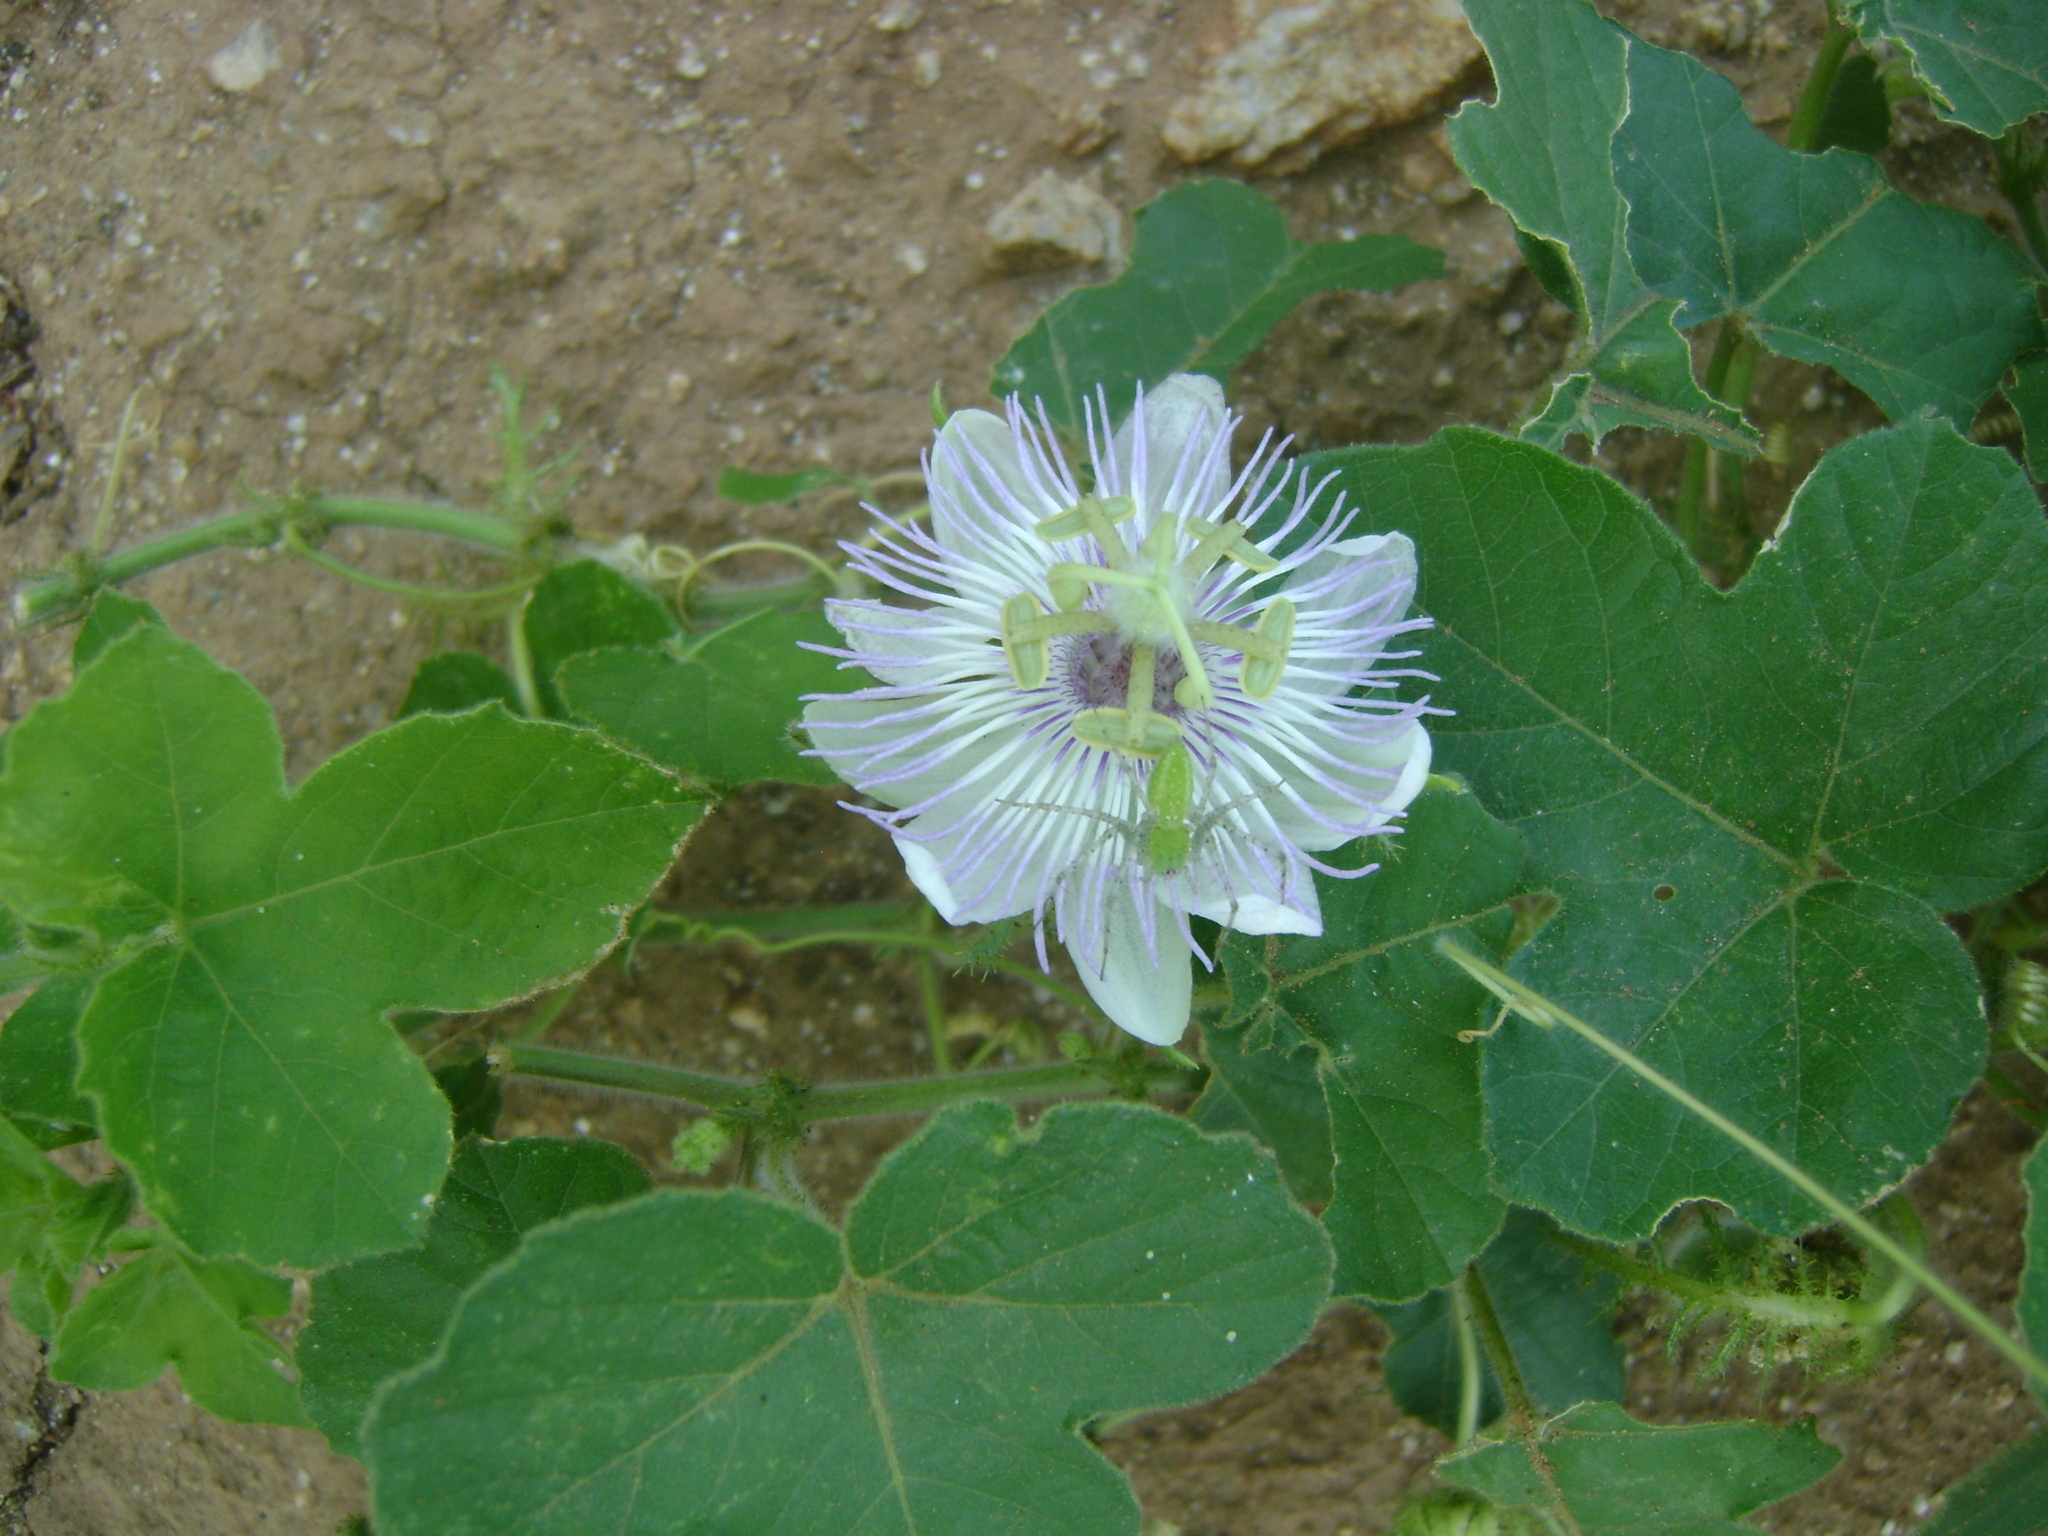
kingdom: Plantae
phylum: Tracheophyta
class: Magnoliopsida
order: Malpighiales
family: Passifloraceae
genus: Passiflora
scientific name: Passiflora foetida
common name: Fetid passionflower
